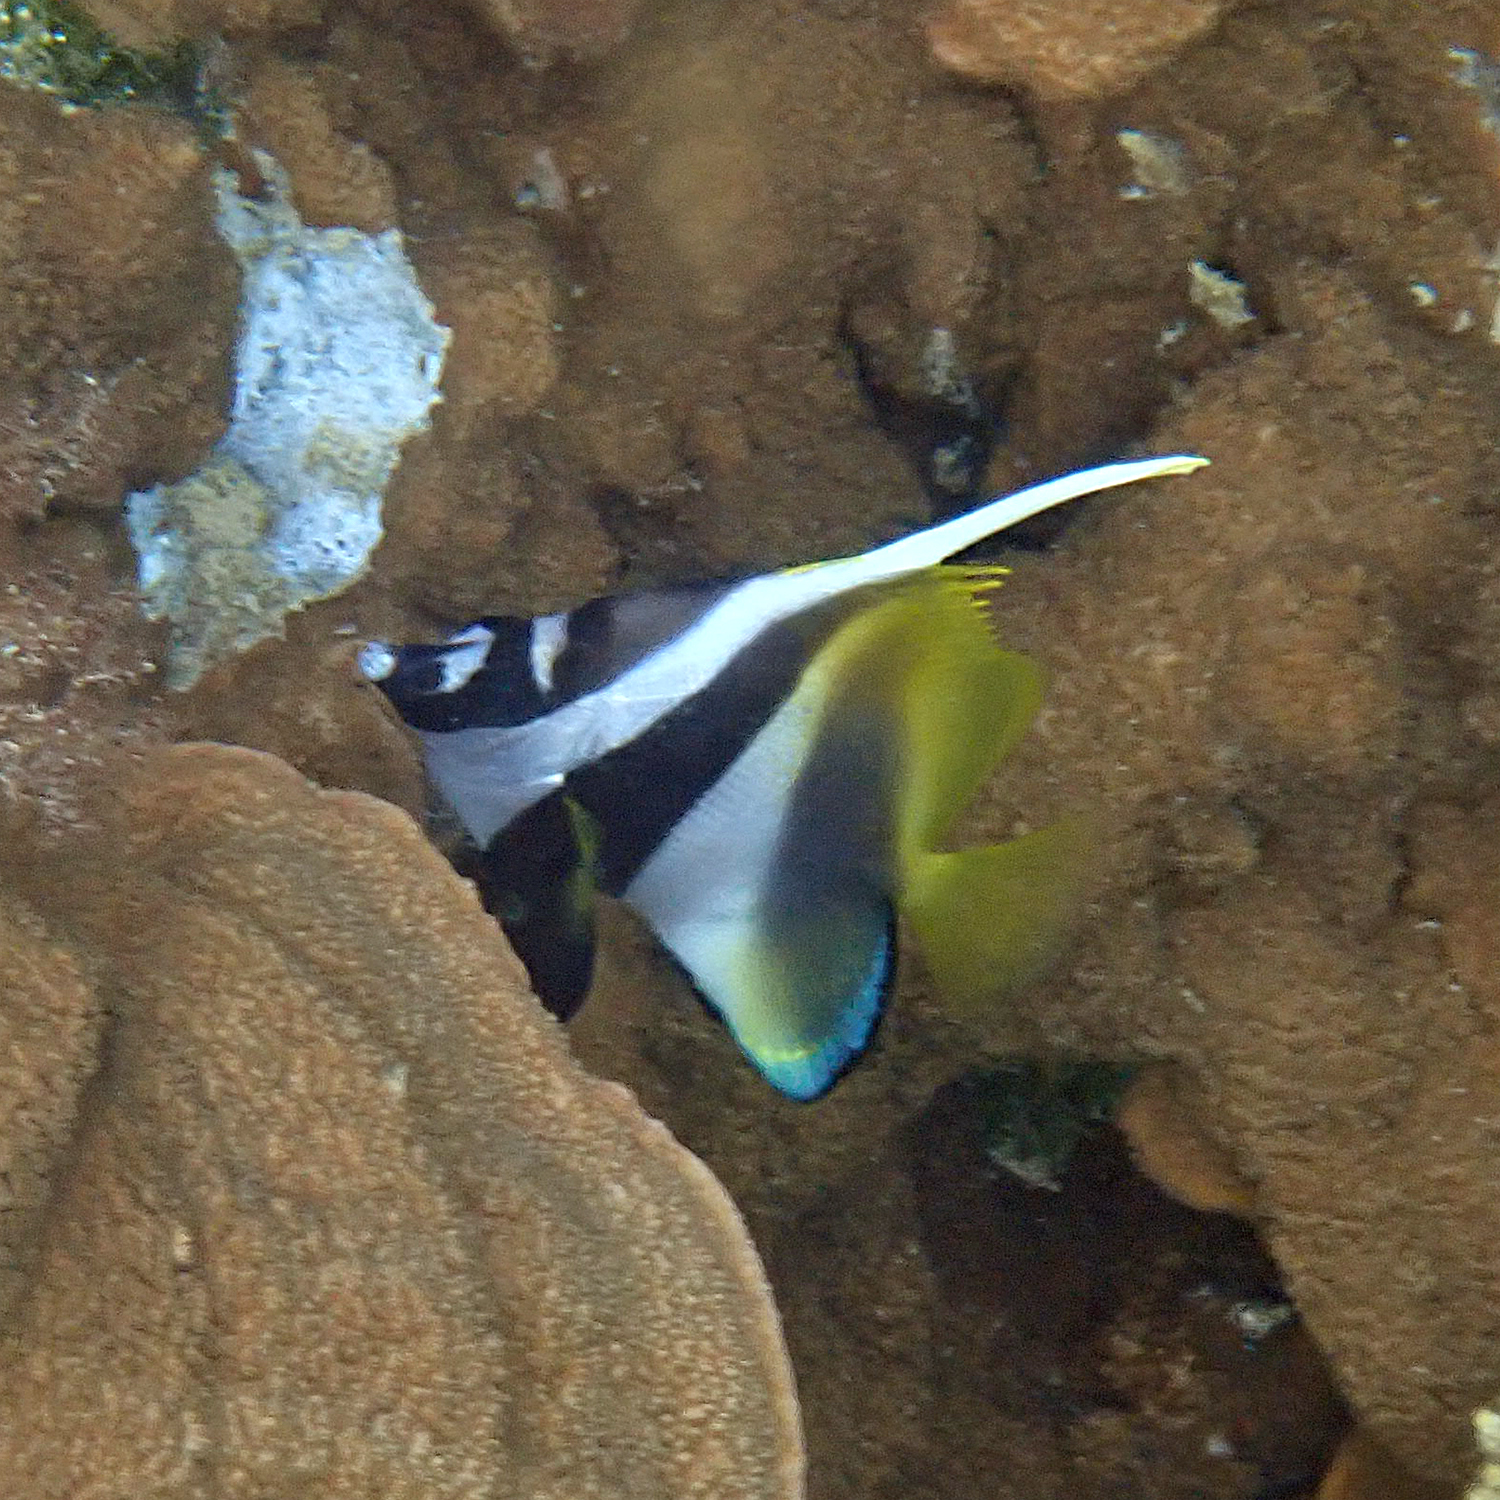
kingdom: Animalia
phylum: Chordata
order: Perciformes
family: Chaetodontidae
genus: Heniochus
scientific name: Heniochus monoceros
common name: Masked bannerfish
